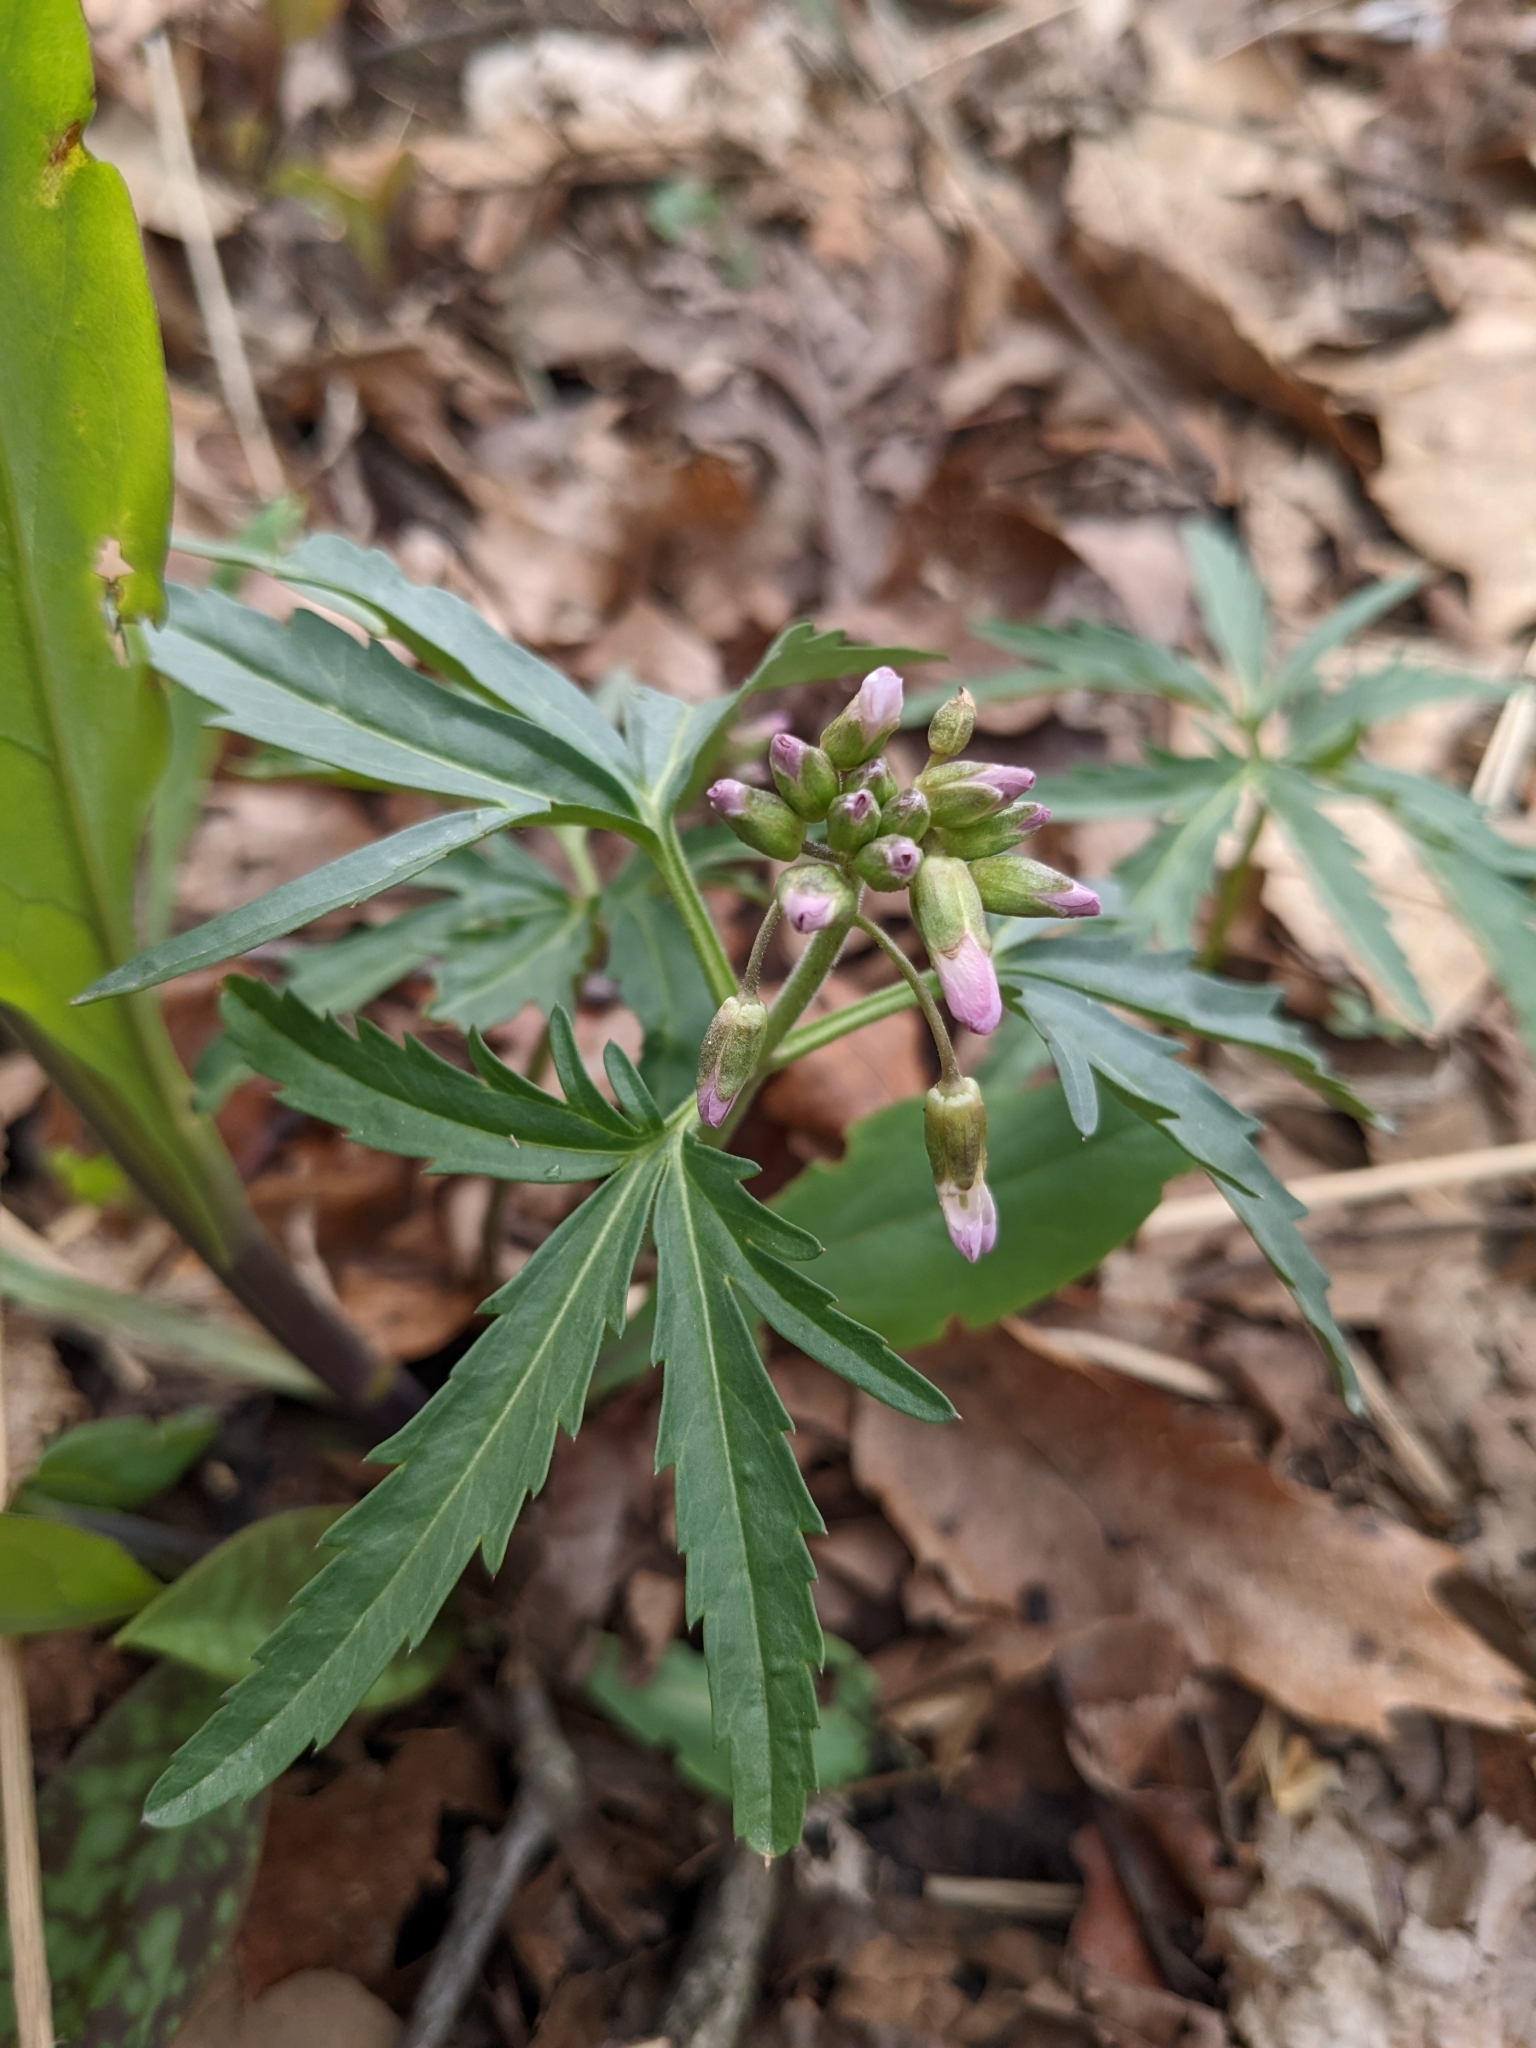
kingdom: Plantae
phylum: Tracheophyta
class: Magnoliopsida
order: Brassicales
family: Brassicaceae
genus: Cardamine
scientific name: Cardamine concatenata
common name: Cut-leaf toothcup
